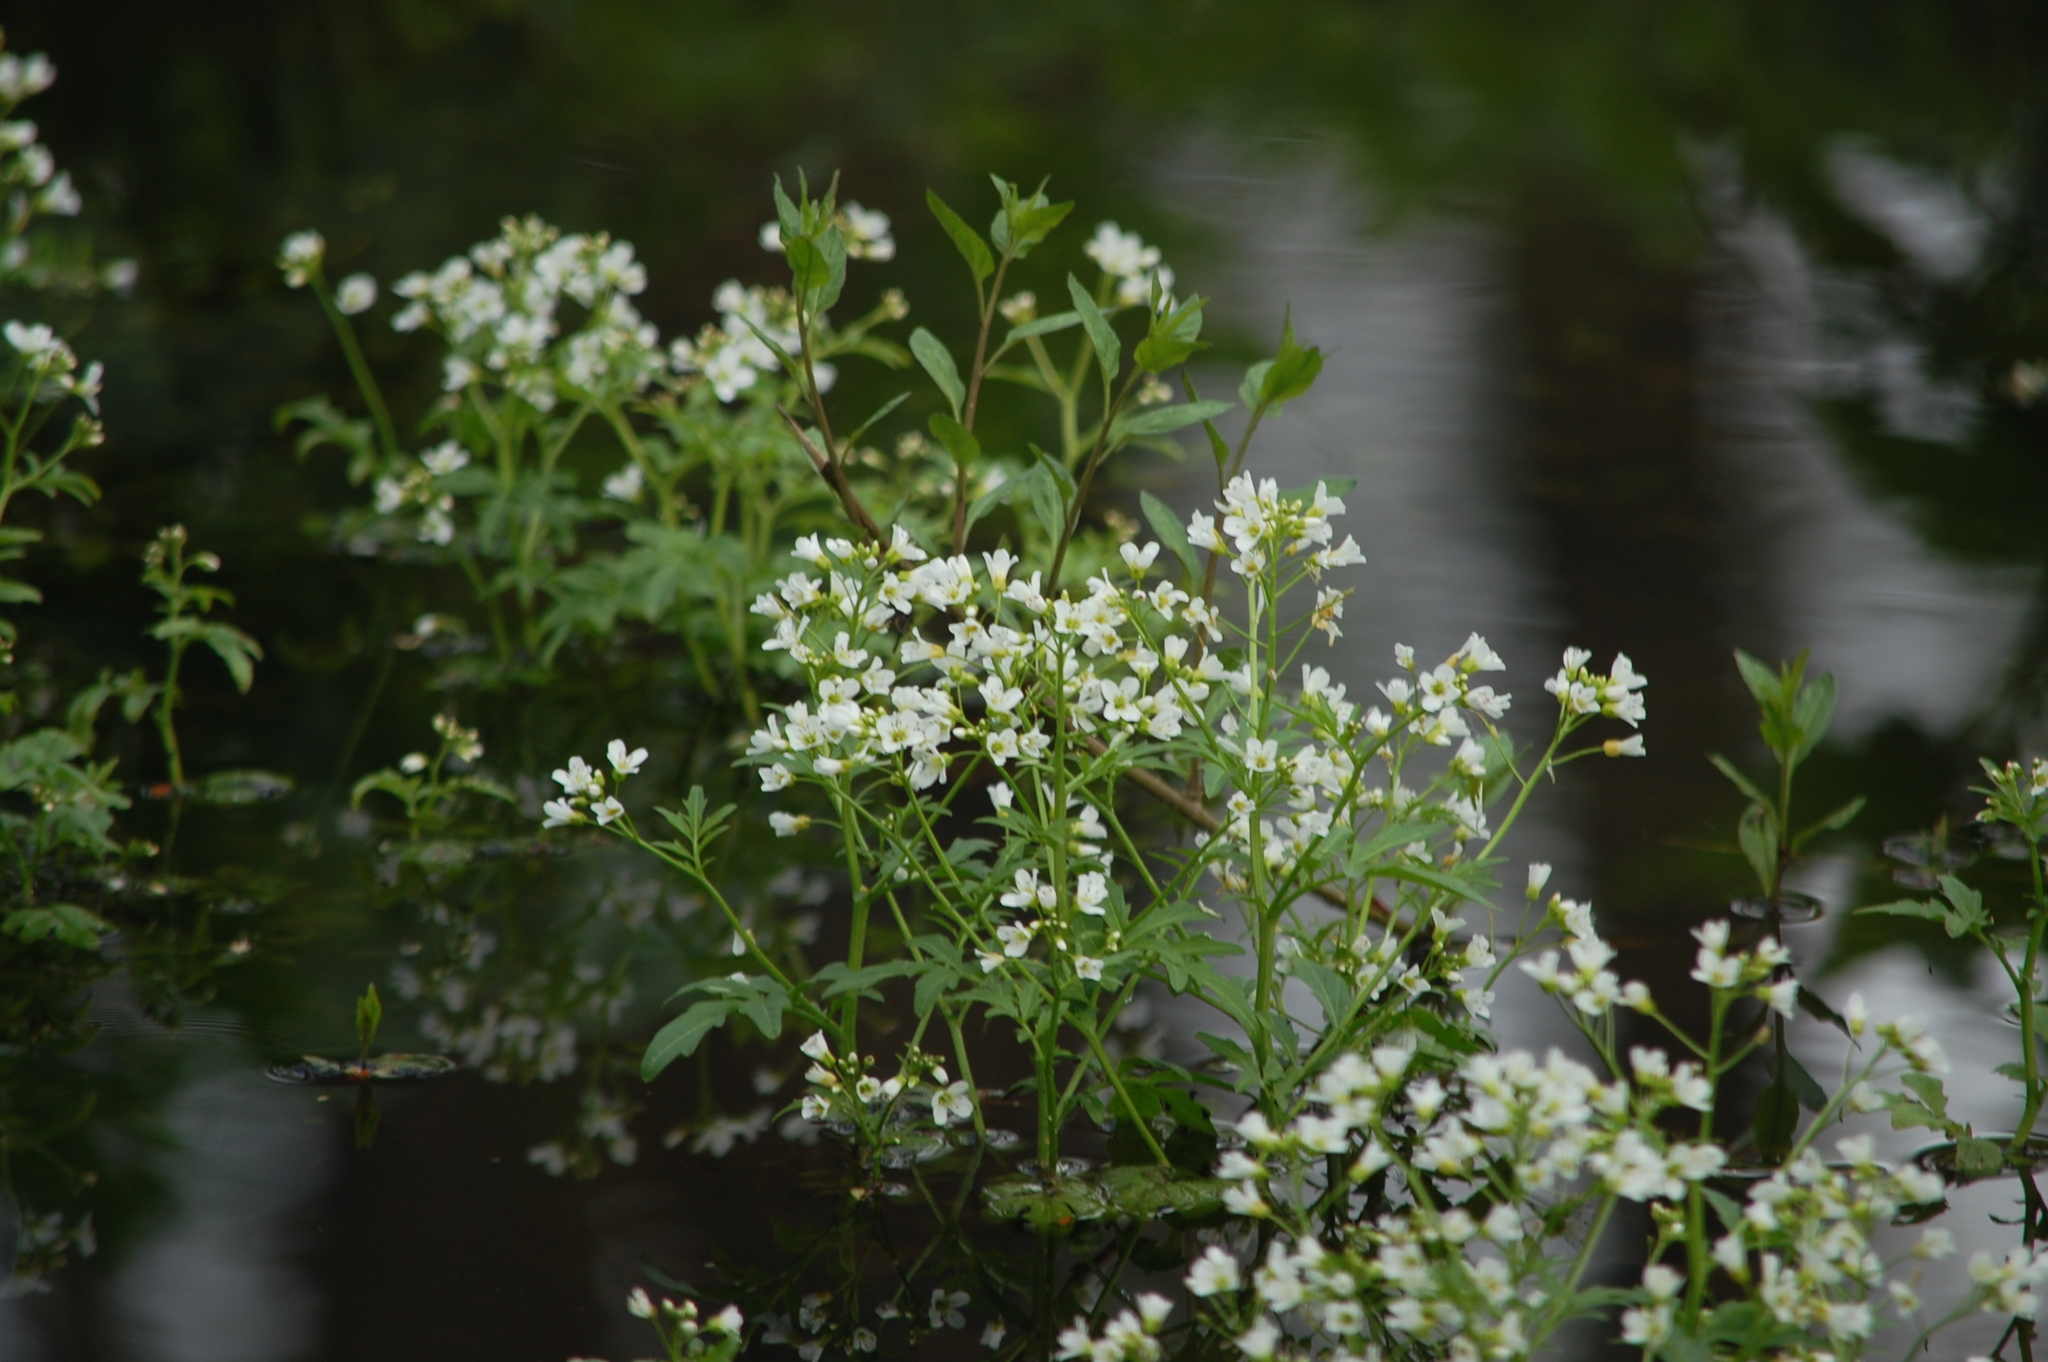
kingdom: Plantae
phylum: Tracheophyta
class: Magnoliopsida
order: Brassicales
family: Brassicaceae
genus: Cardamine
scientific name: Cardamine amara
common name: Large bitter-cress
